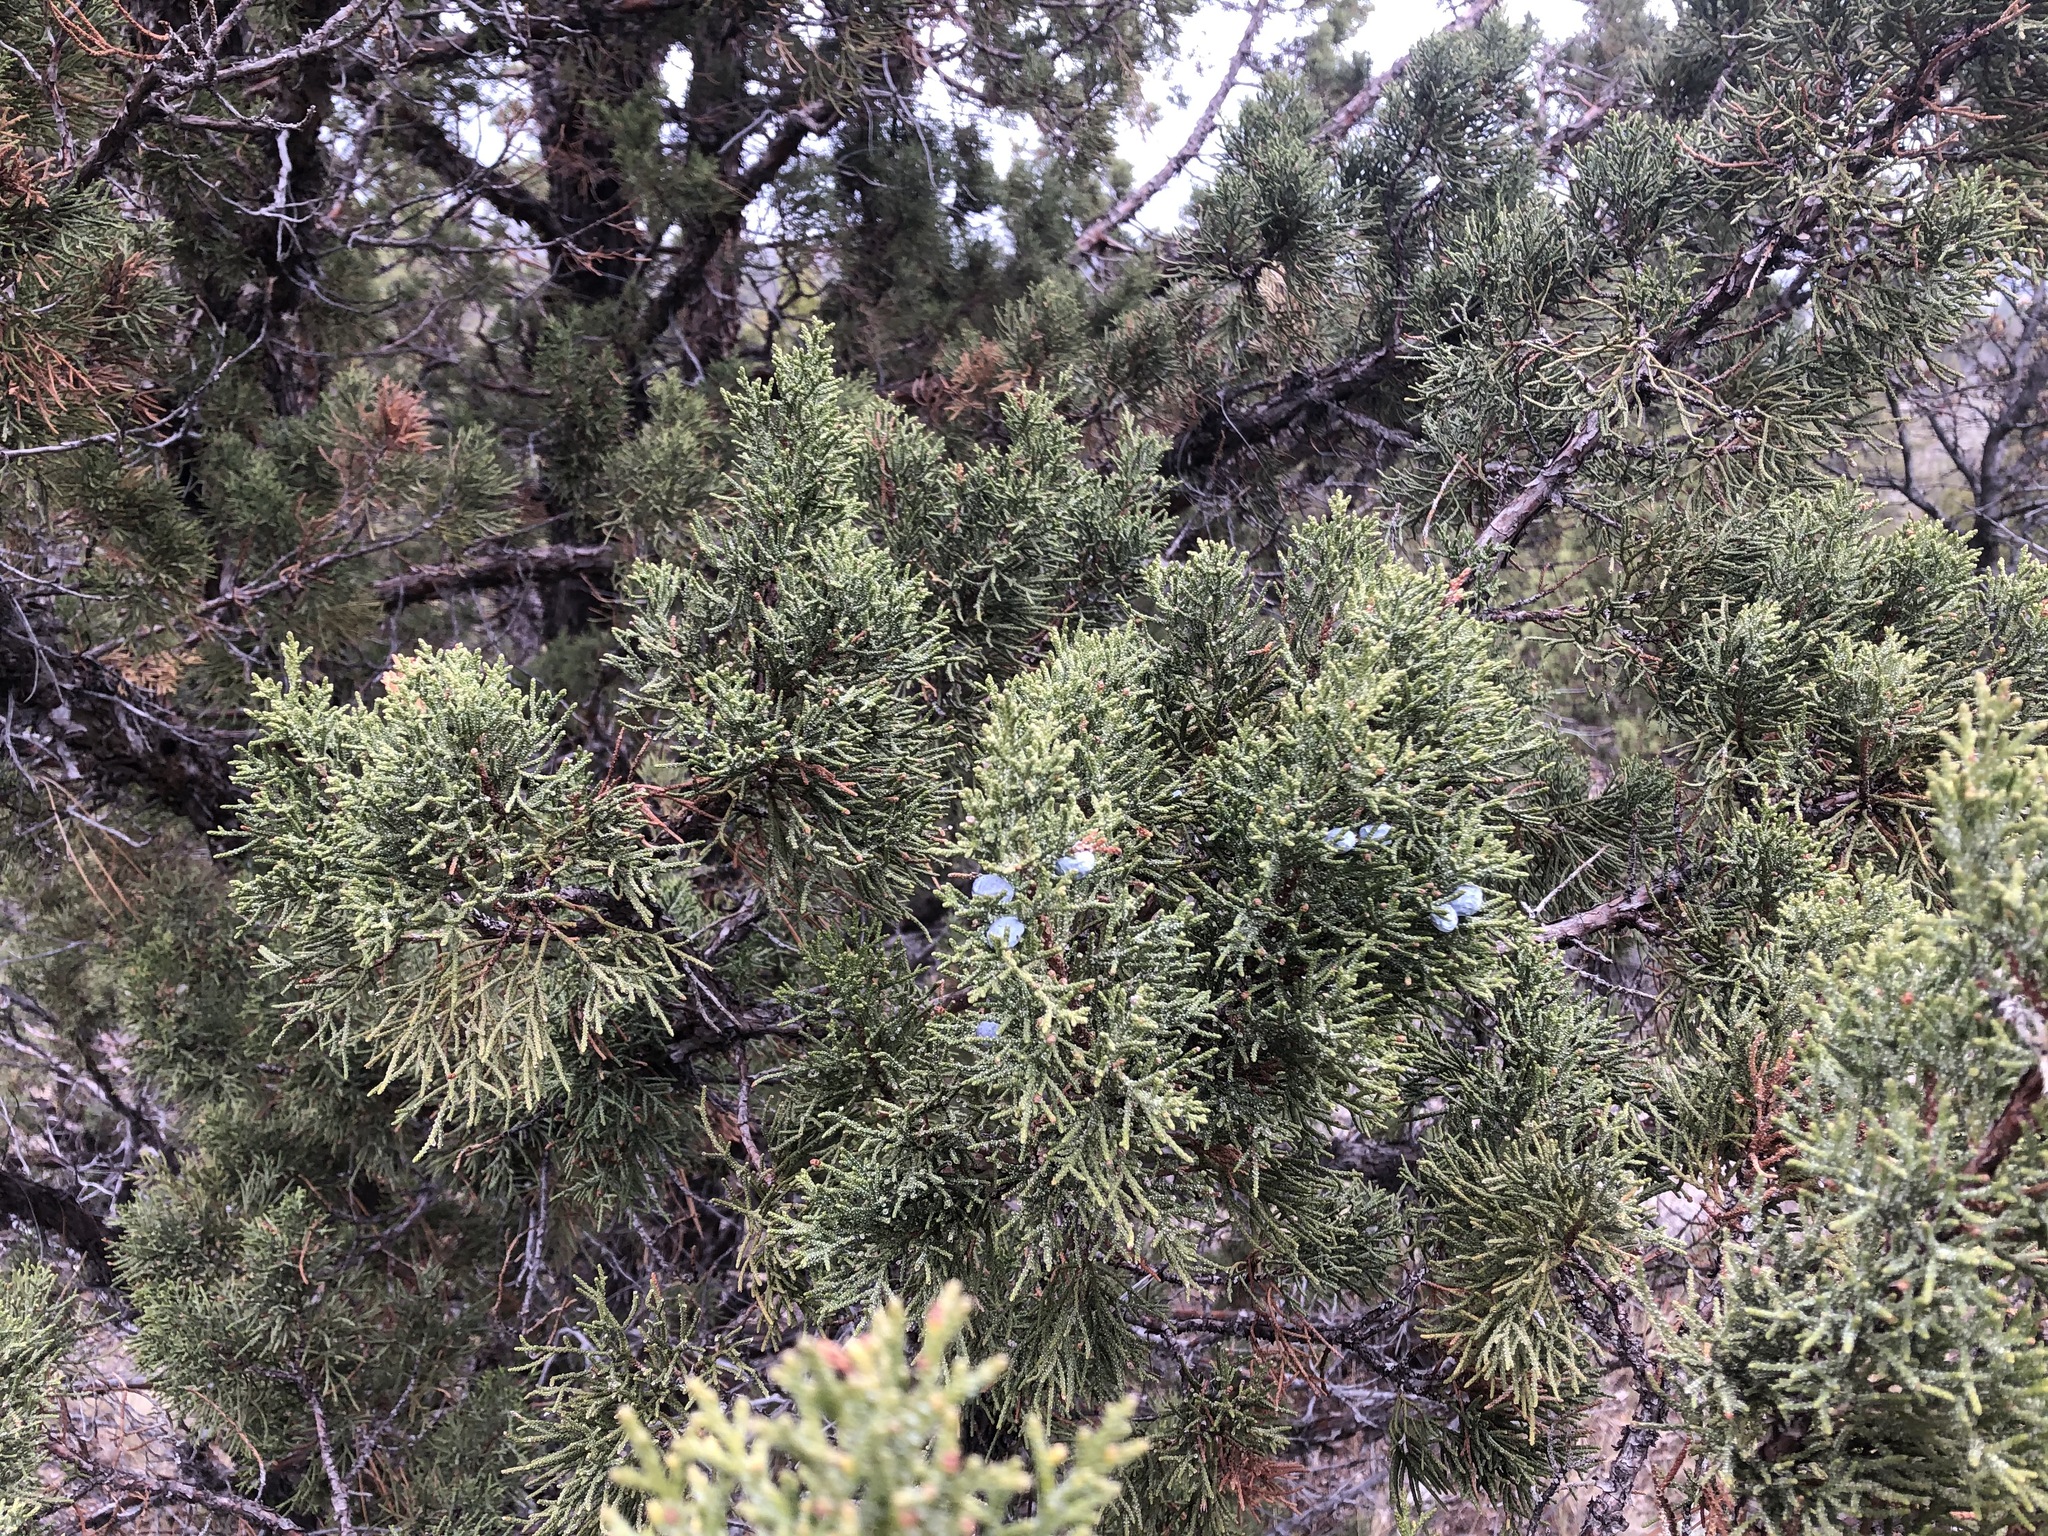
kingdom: Plantae
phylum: Tracheophyta
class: Pinopsida
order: Pinales
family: Cupressaceae
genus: Juniperus
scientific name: Juniperus occidentalis
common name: Western juniper
